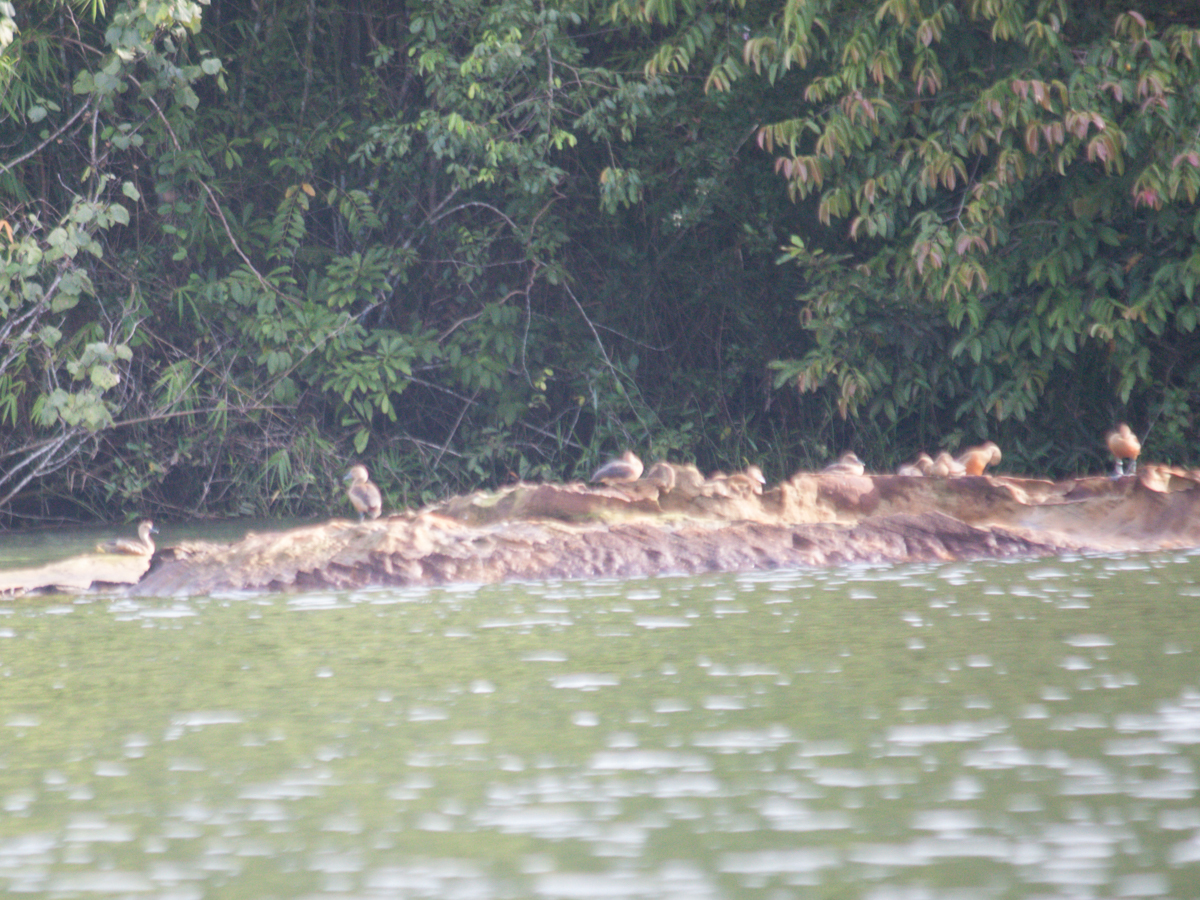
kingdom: Animalia
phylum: Chordata
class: Aves
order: Anseriformes
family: Anatidae
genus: Dendrocygna
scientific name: Dendrocygna javanica
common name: Lesser whistling-duck
